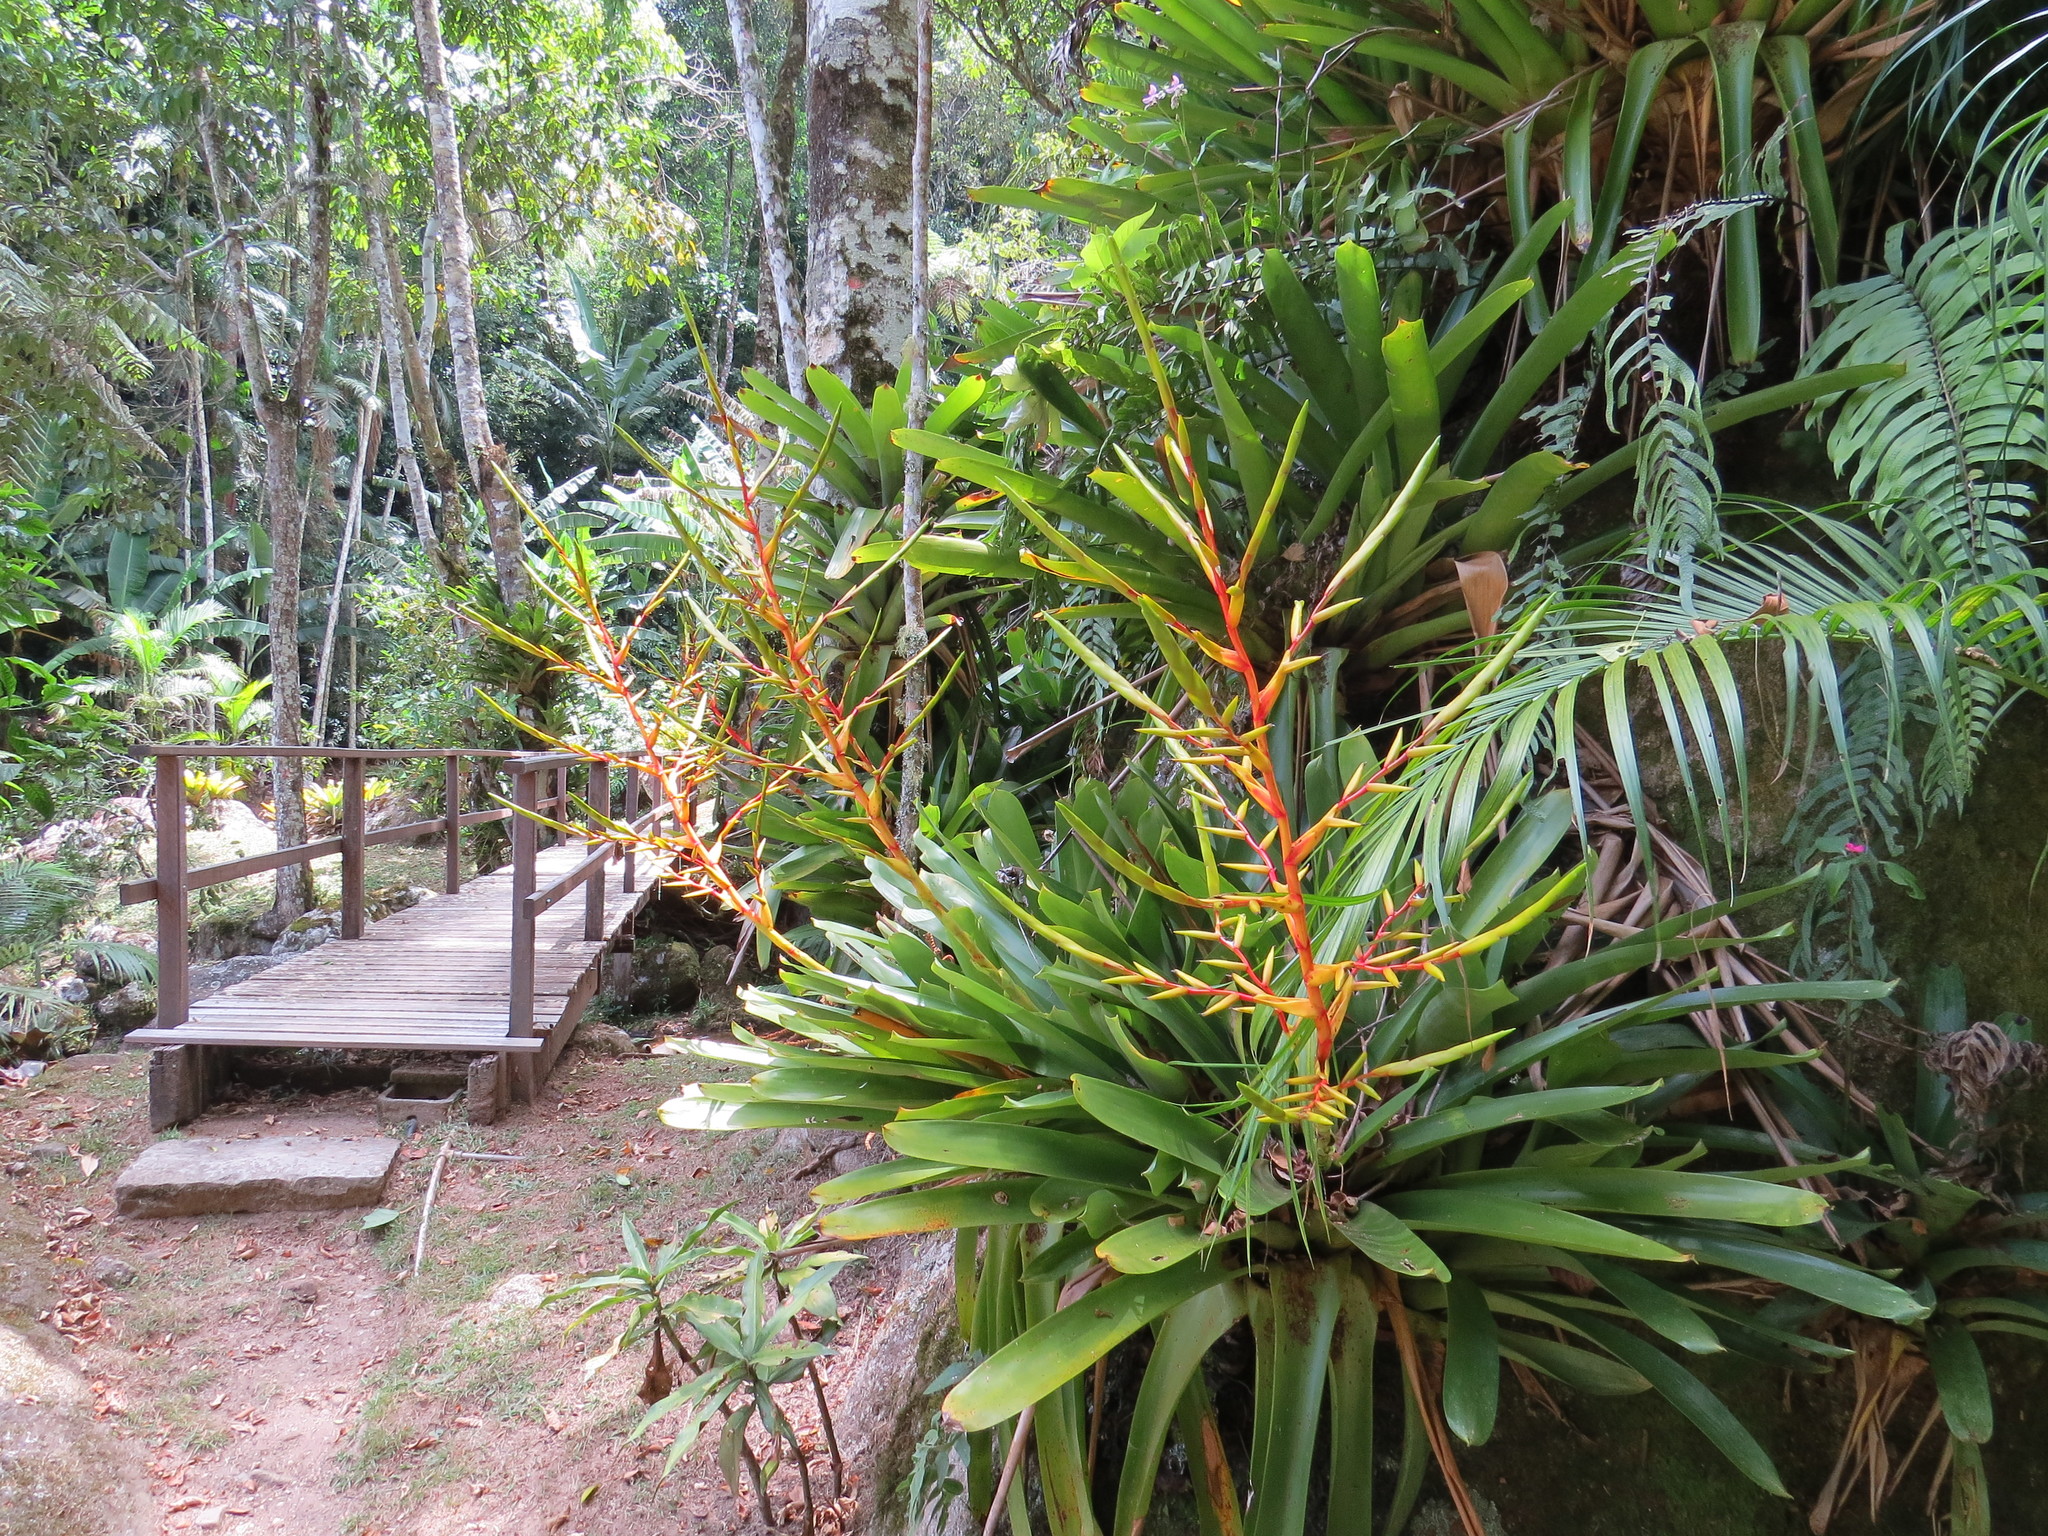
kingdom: Plantae
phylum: Tracheophyta
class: Liliopsida
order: Poales
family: Bromeliaceae
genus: Vriesea
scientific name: Vriesea triligulata
